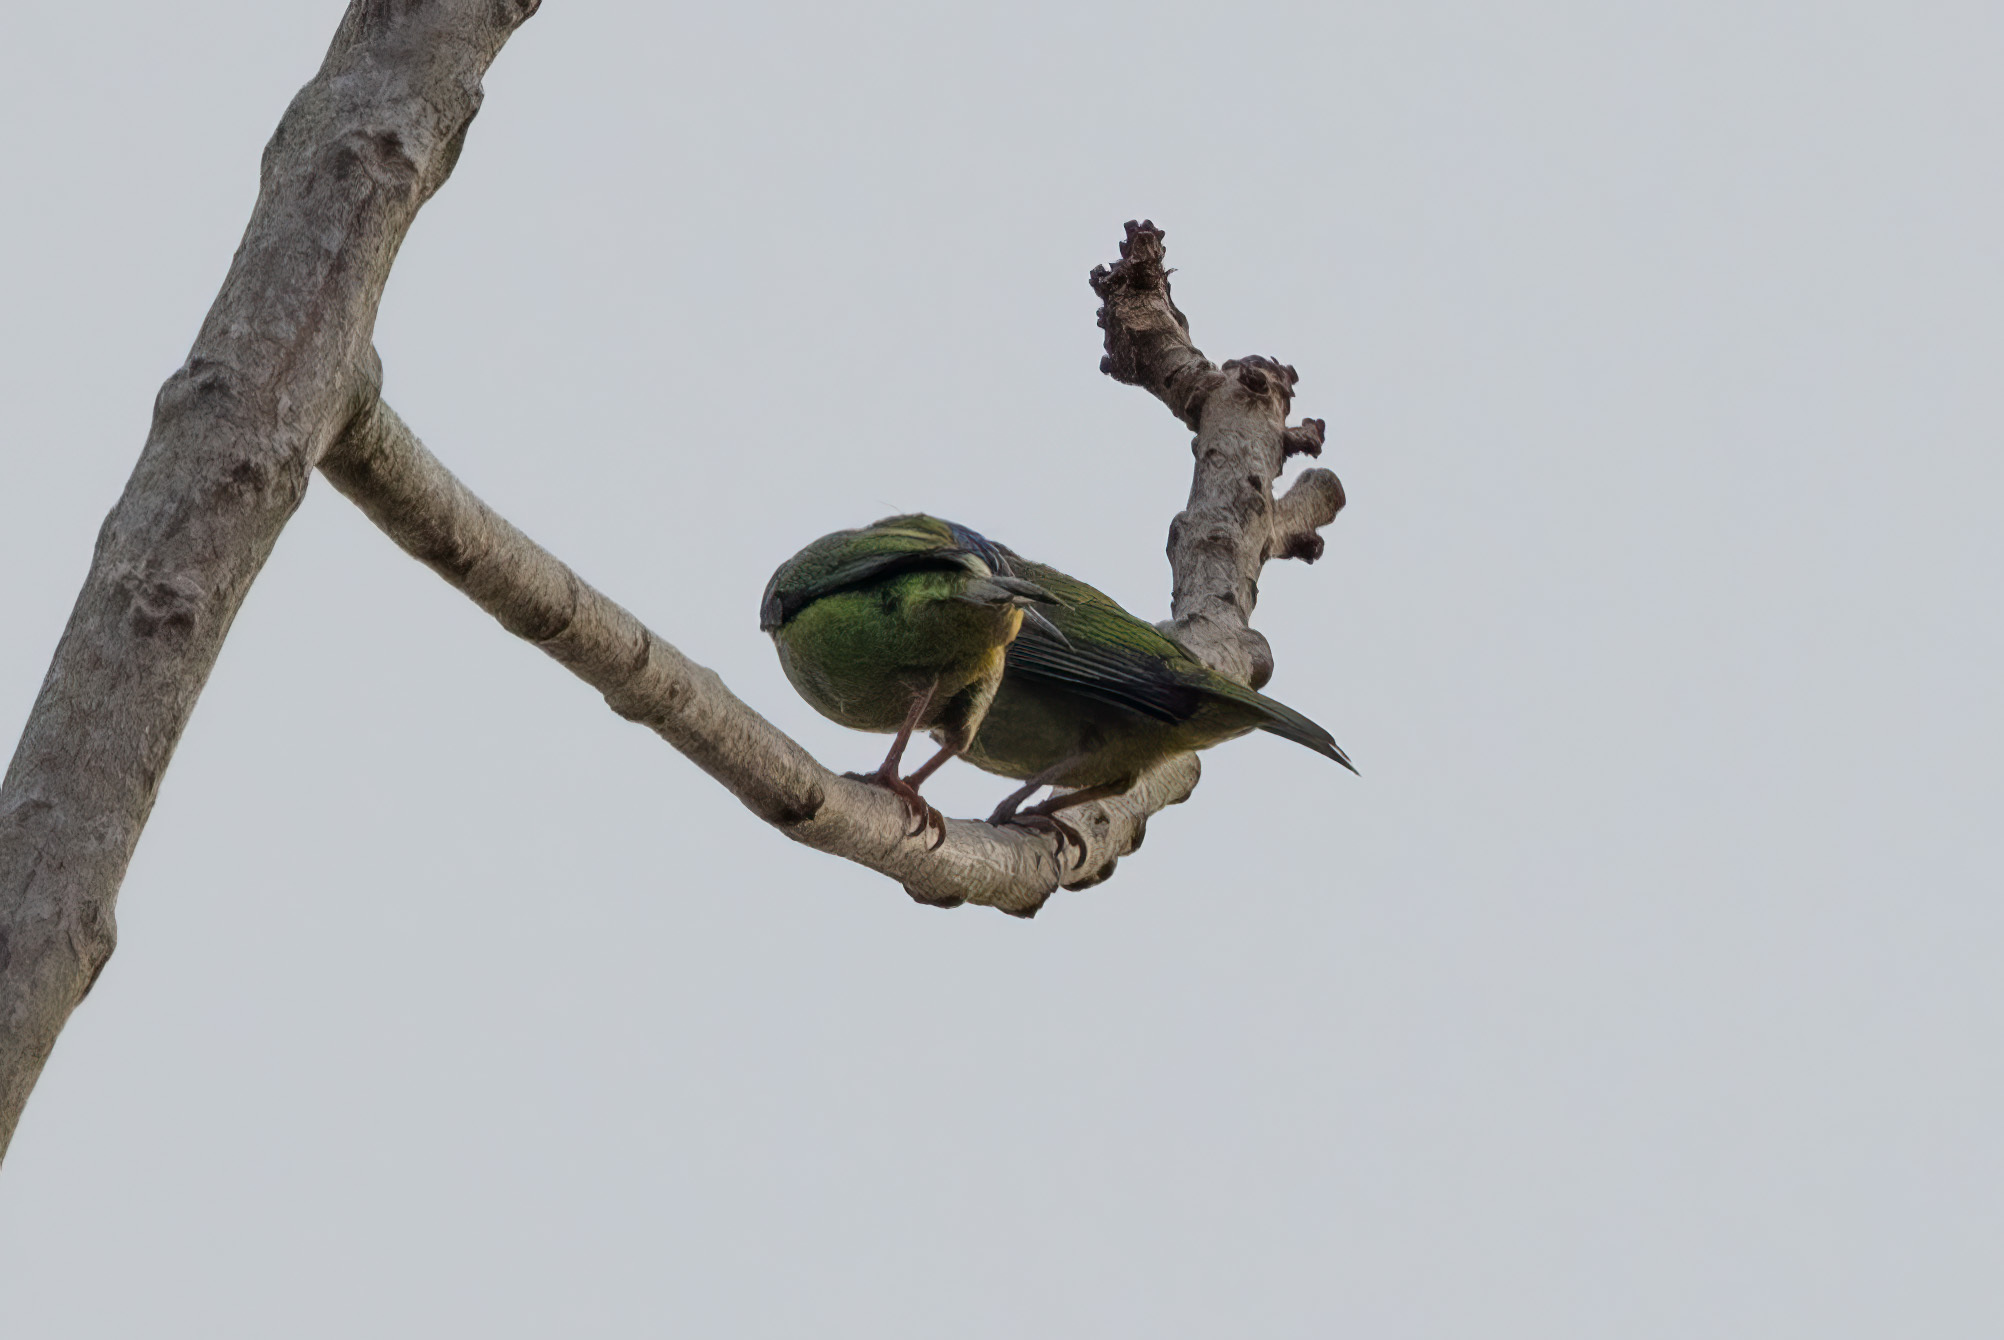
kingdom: Animalia
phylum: Chordata
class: Aves
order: Passeriformes
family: Thraupidae
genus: Dacnis
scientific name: Dacnis cayana
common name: Blue dacnis
